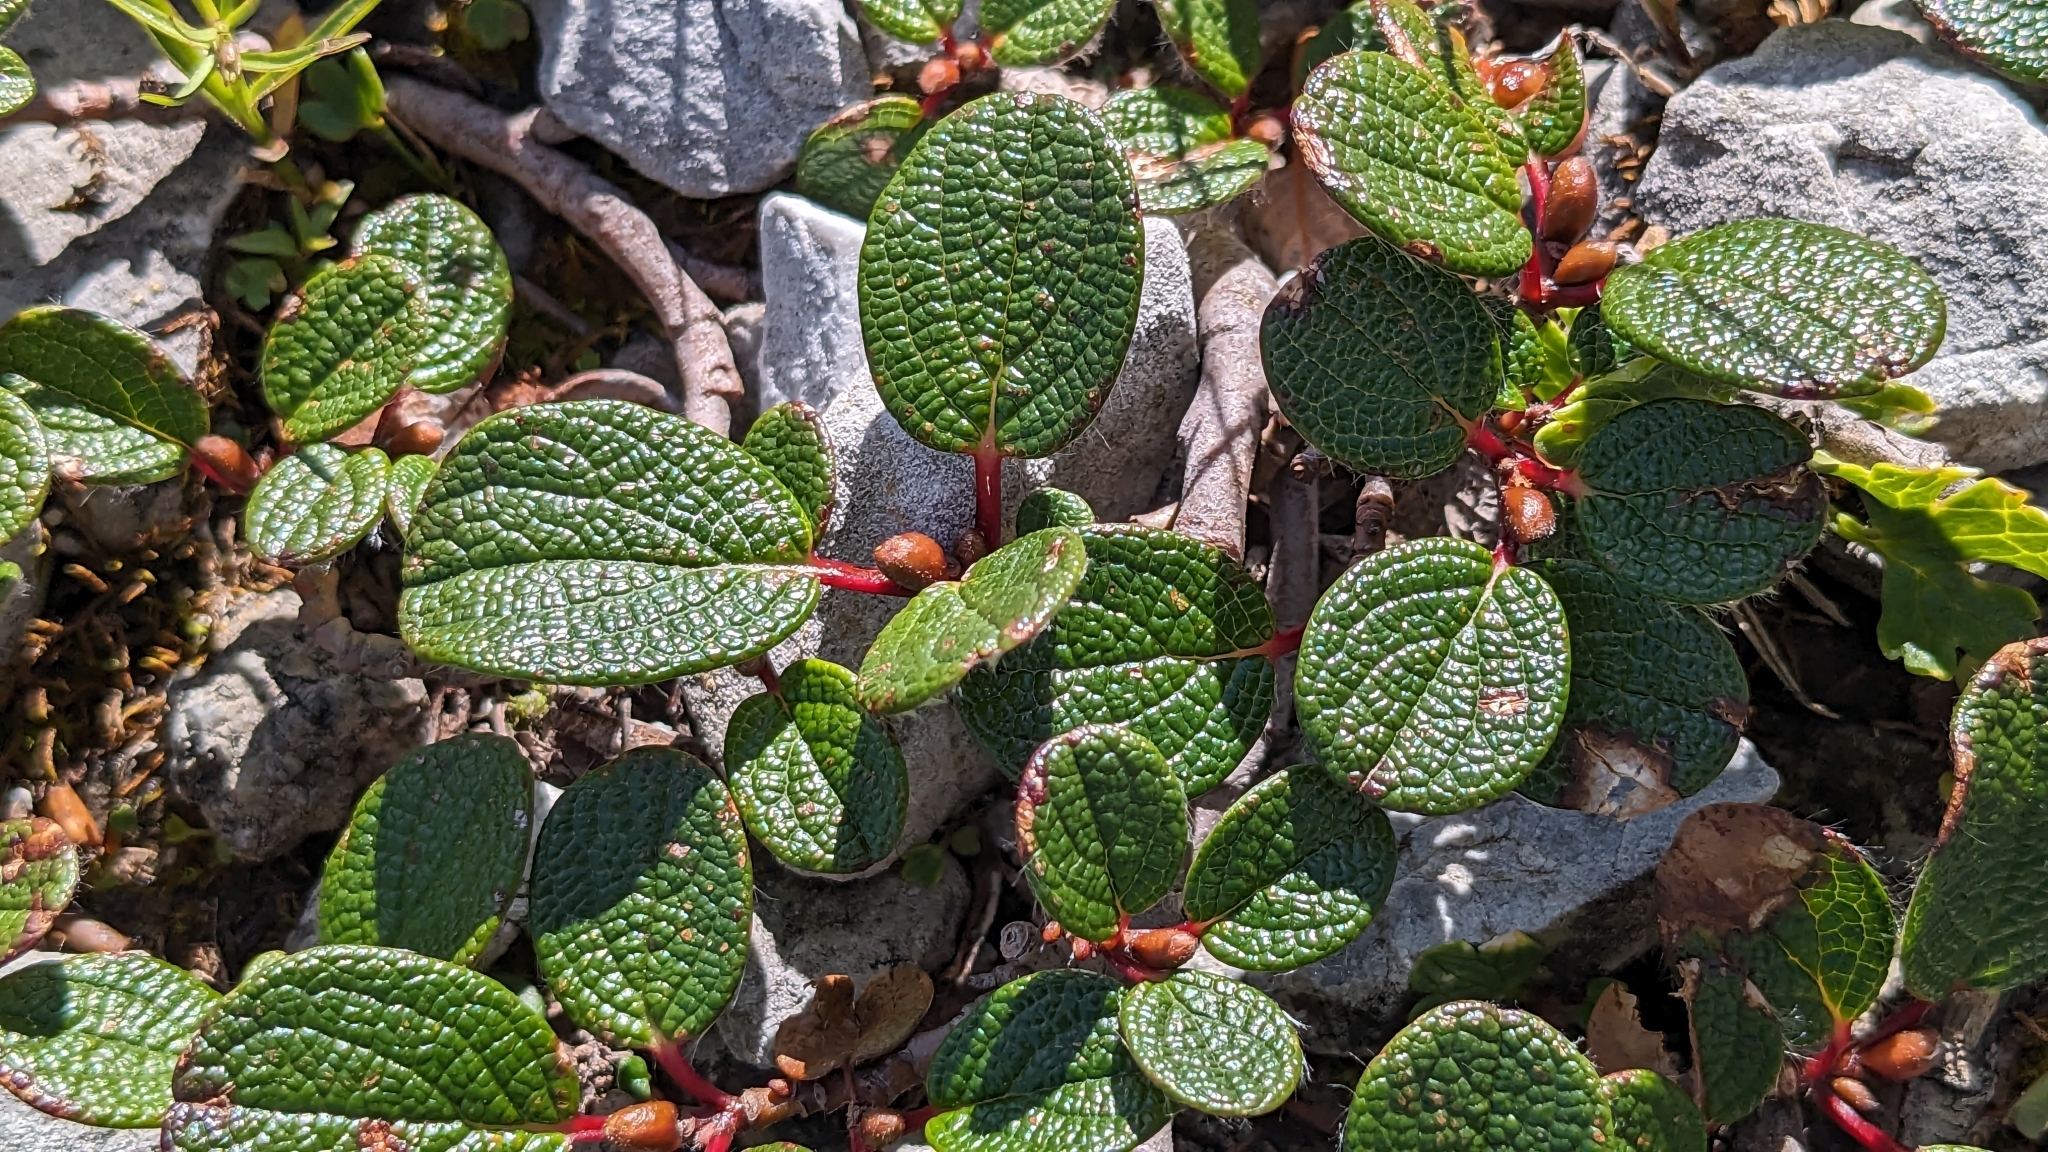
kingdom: Plantae
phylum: Tracheophyta
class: Magnoliopsida
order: Malpighiales
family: Salicaceae
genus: Salix
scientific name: Salix reticulata
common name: Net-leaved willow
